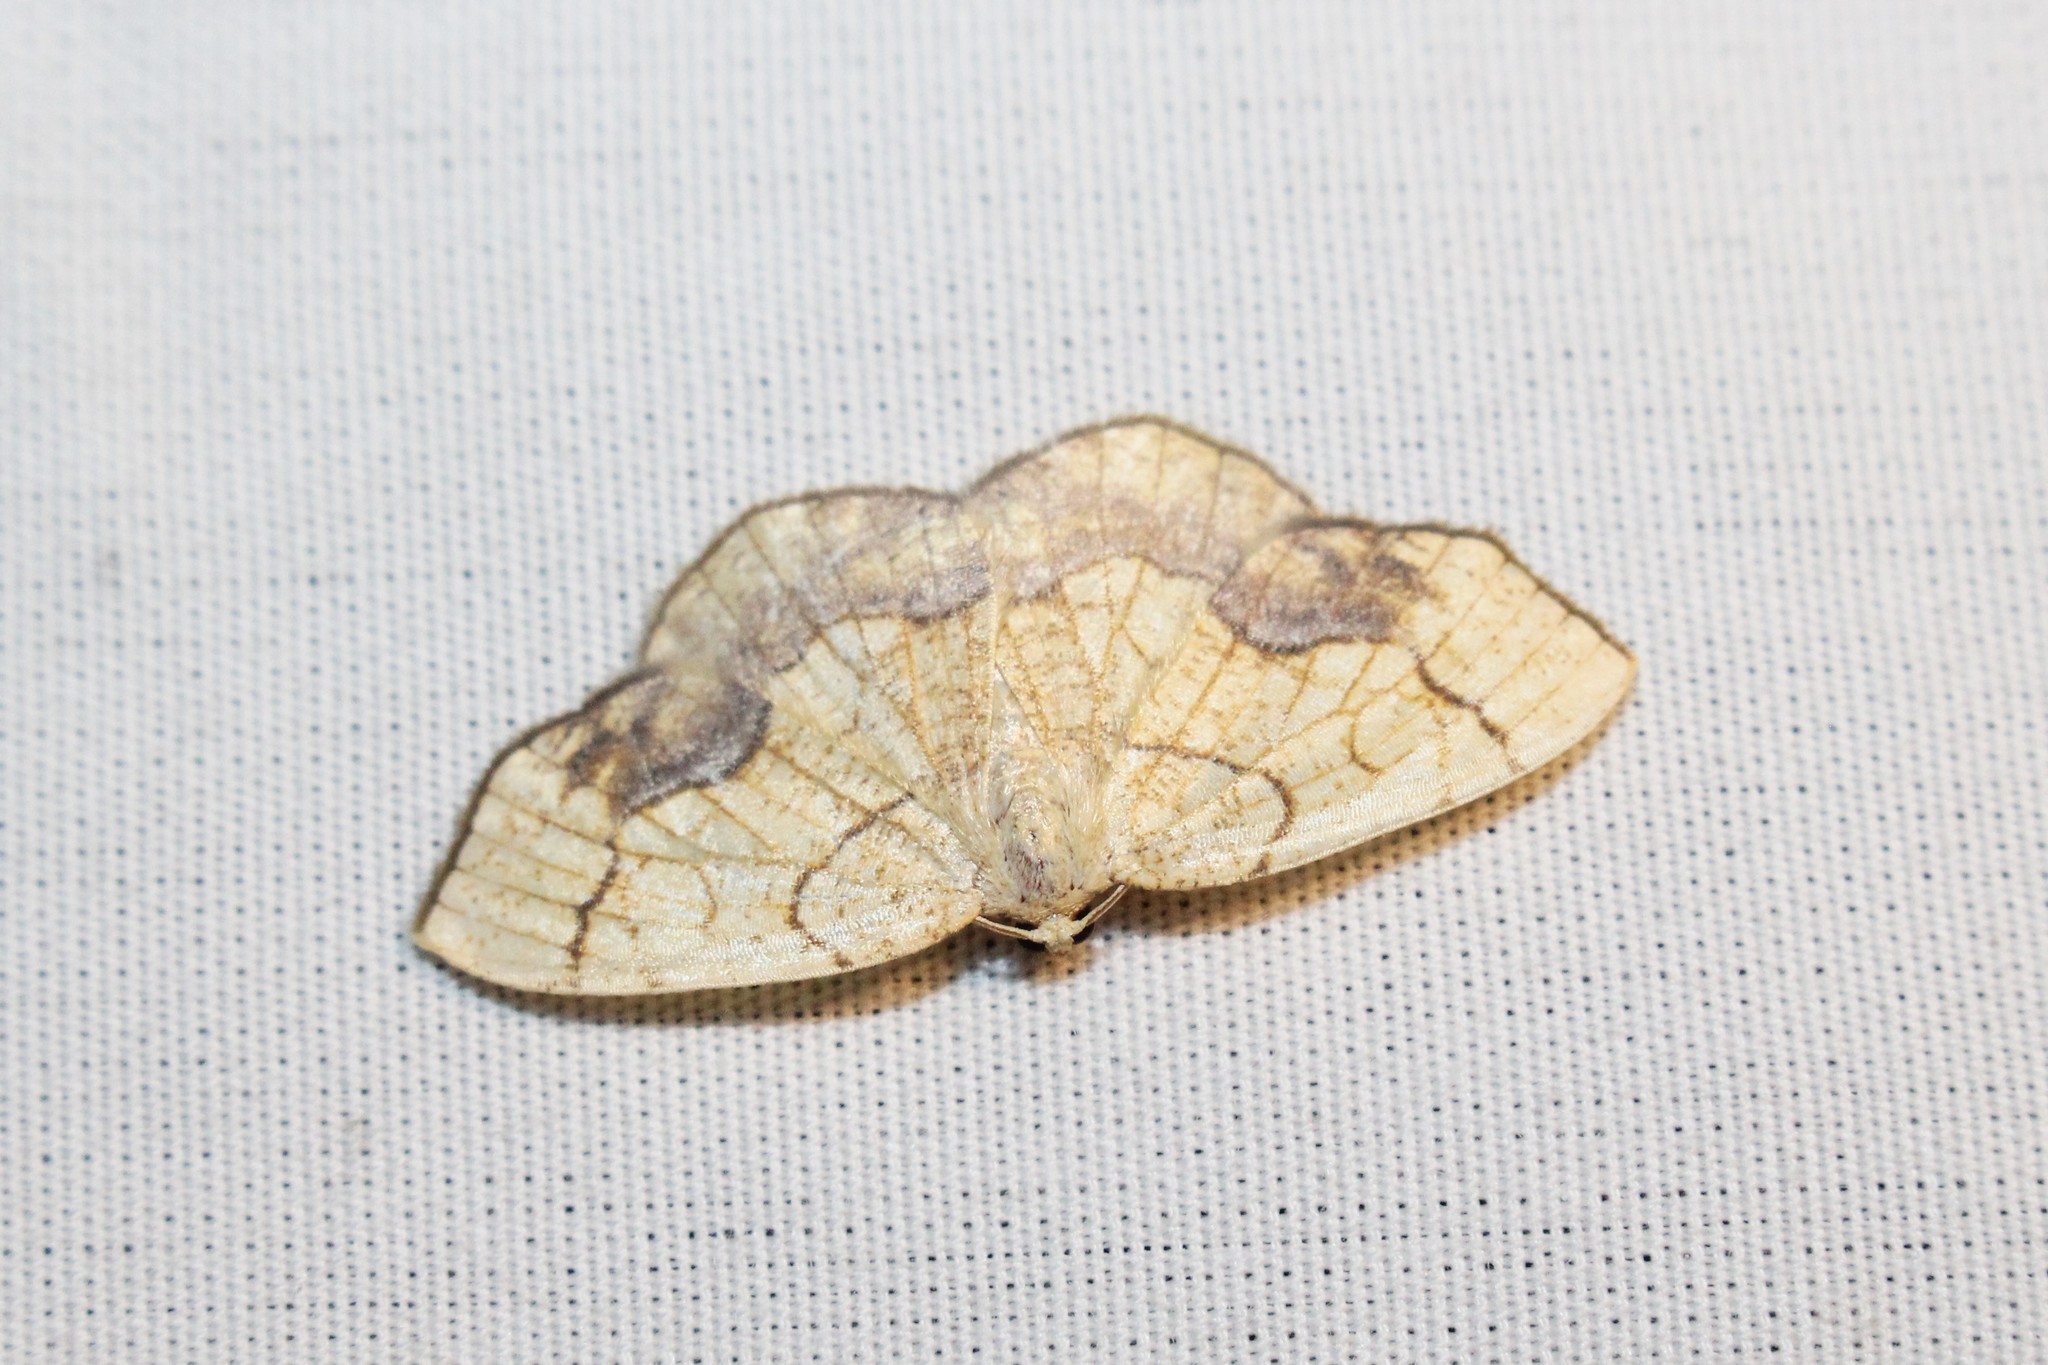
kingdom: Animalia
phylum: Arthropoda
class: Insecta
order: Lepidoptera
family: Geometridae
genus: Nematocampa
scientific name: Nematocampa resistaria
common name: Horned spanworm moth
